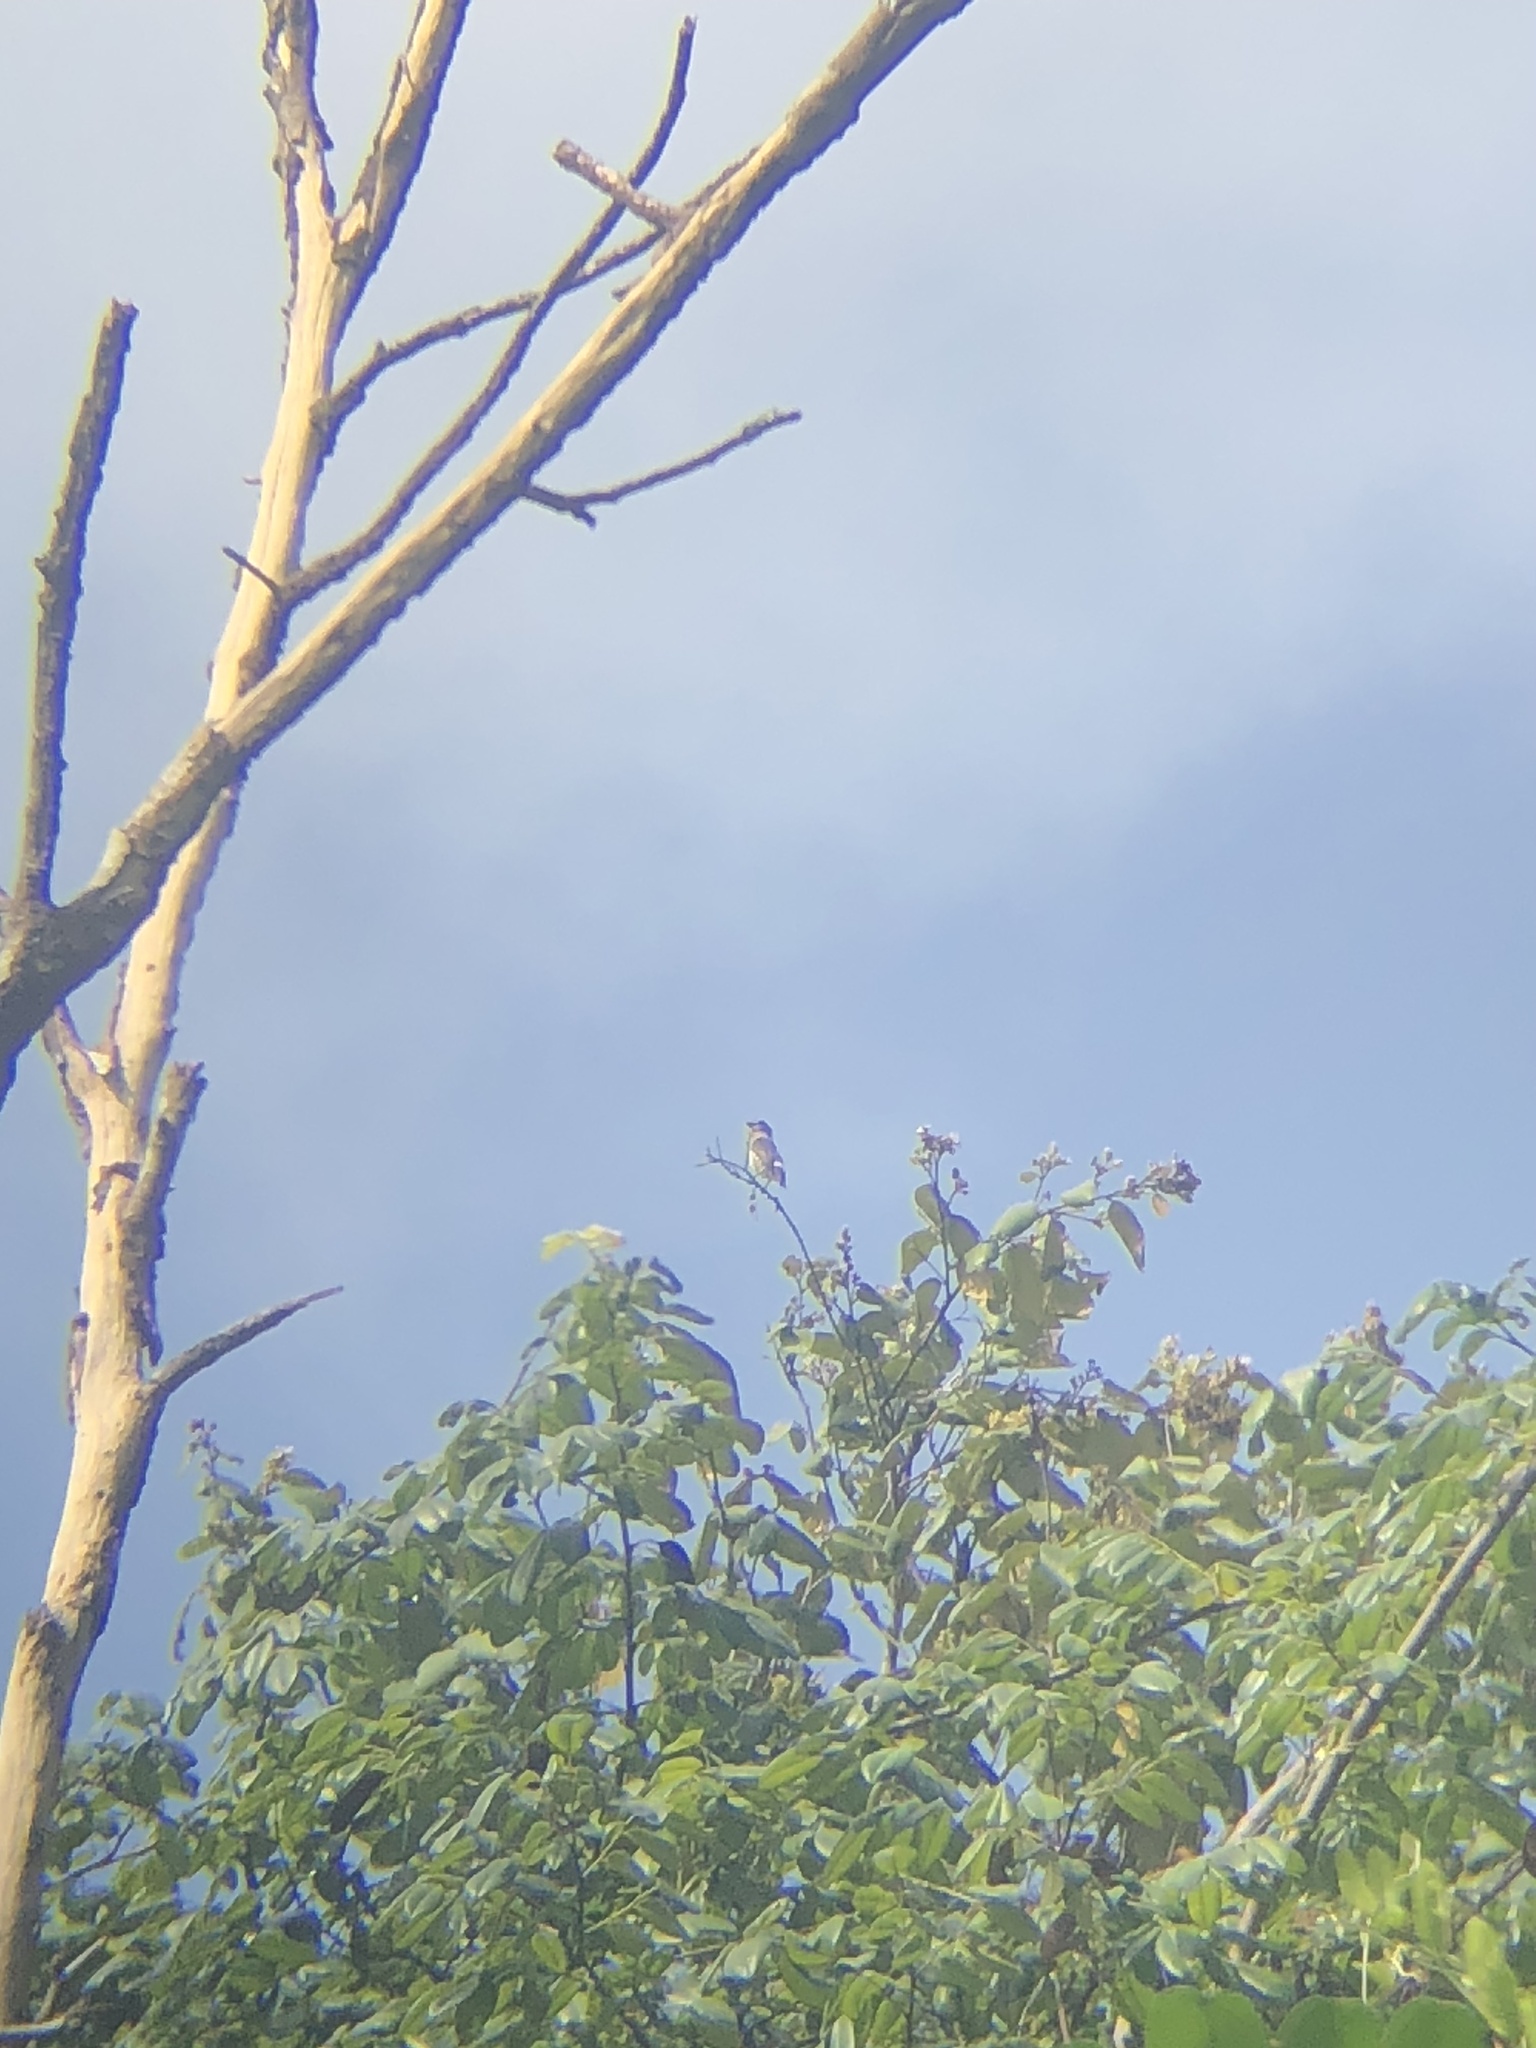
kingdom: Animalia
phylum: Chordata
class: Aves
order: Passeriformes
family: Cotingidae
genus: Iodopleura
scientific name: Iodopleura pipra
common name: Buff-throated purpletuft
